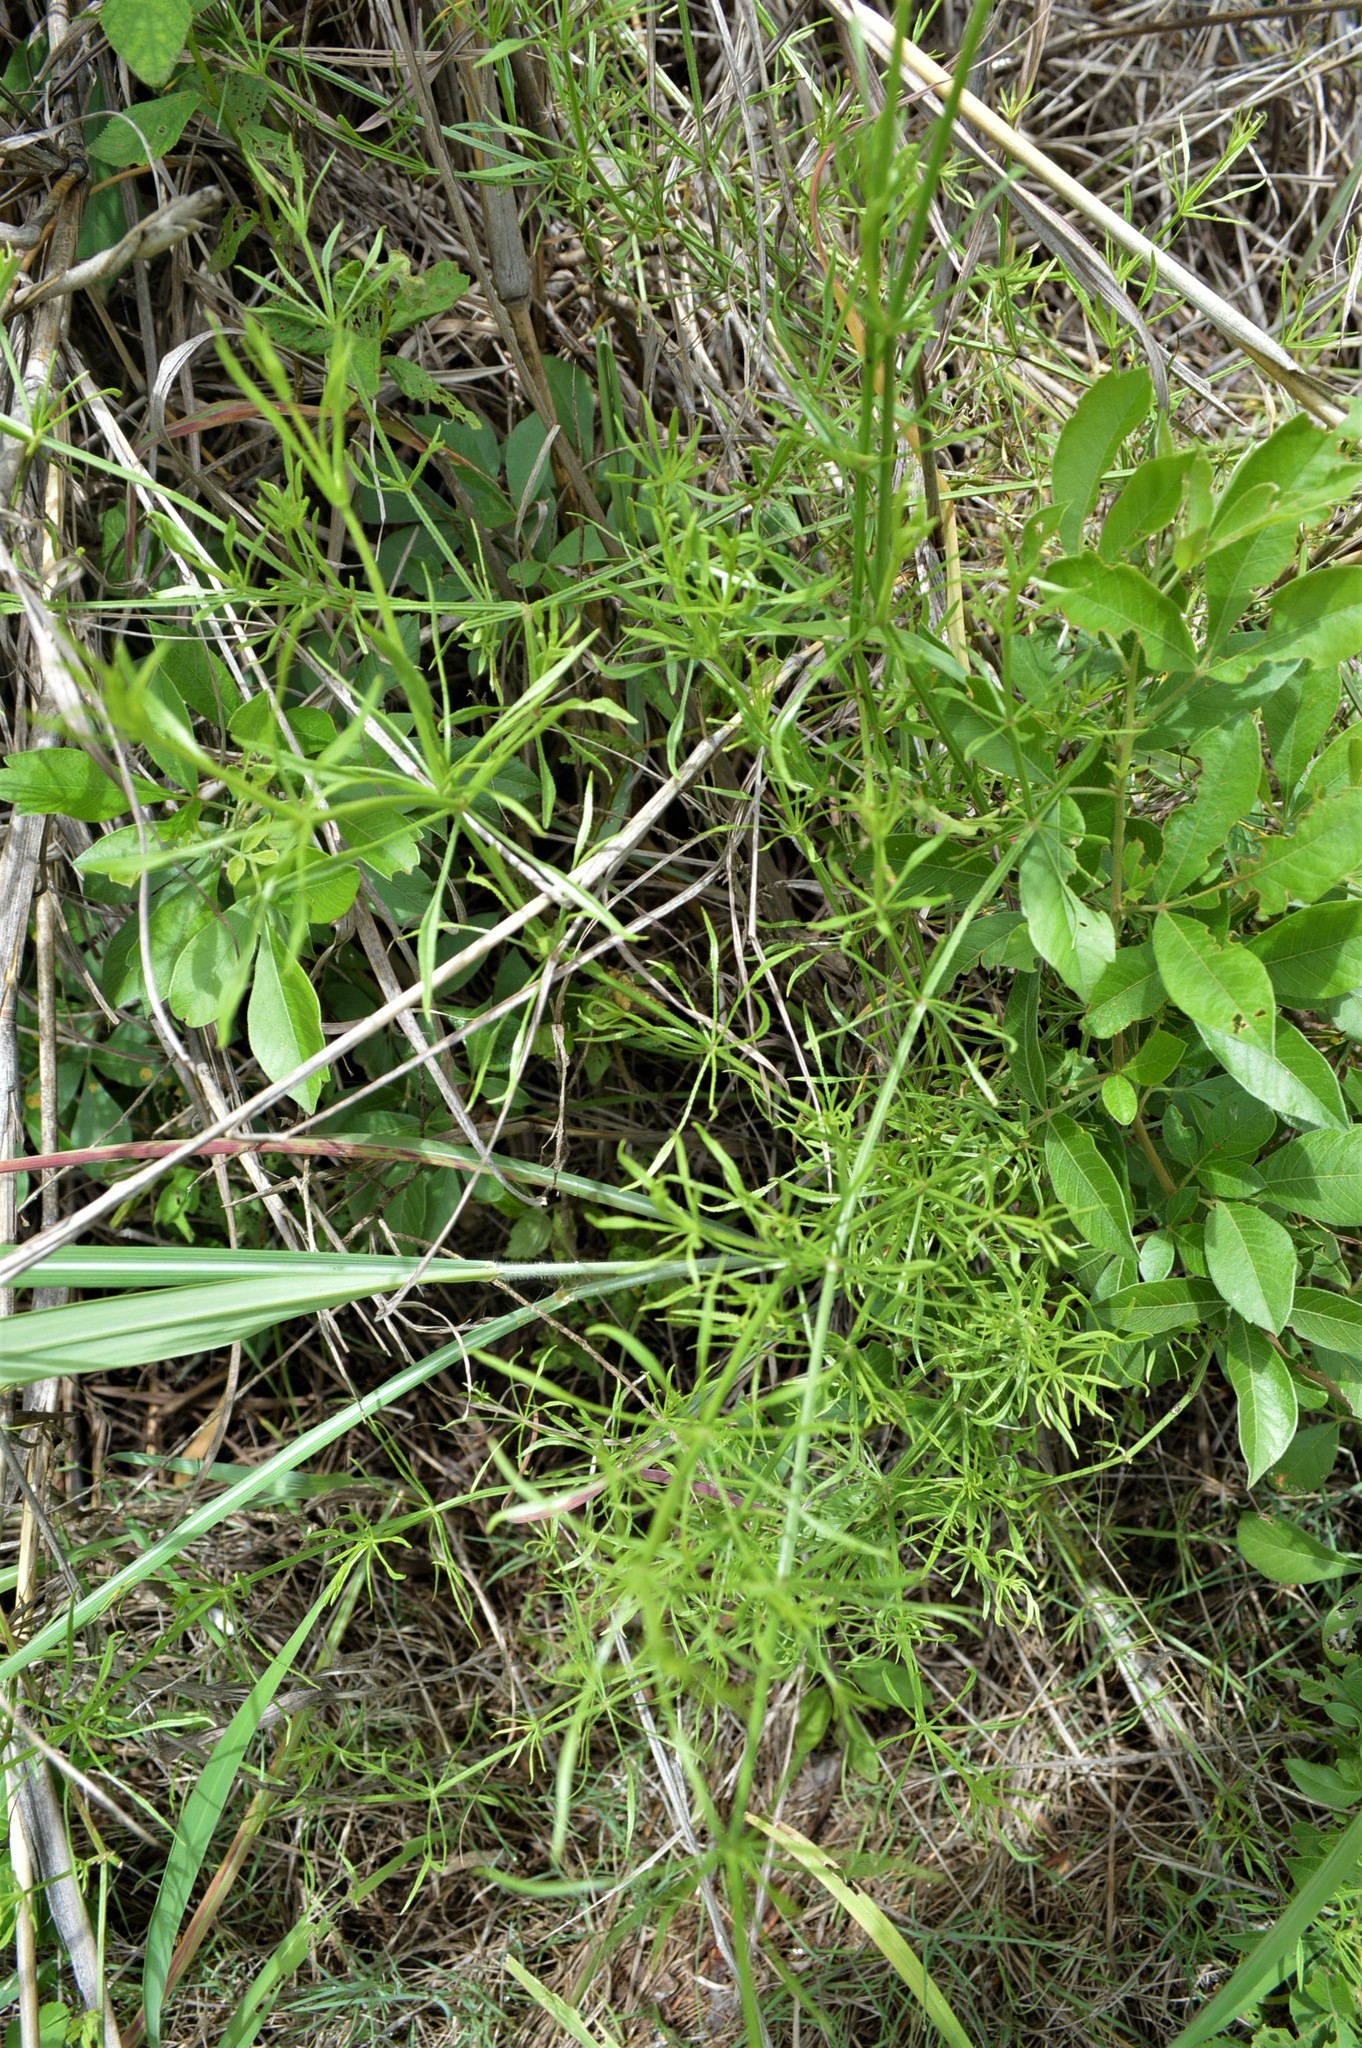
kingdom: Plantae
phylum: Tracheophyta
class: Magnoliopsida
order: Gentianales
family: Rubiaceae
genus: Rubia
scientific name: Rubia horrida
